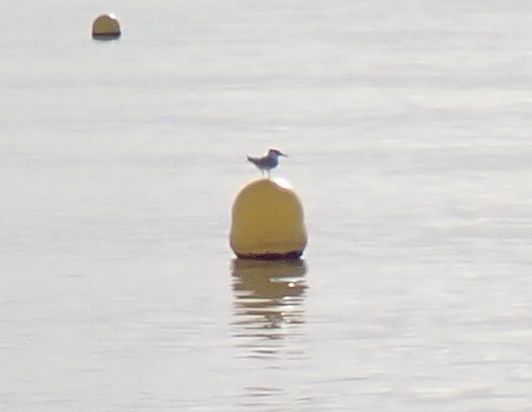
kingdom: Animalia
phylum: Chordata
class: Aves
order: Charadriiformes
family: Laridae
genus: Thalasseus
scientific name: Thalasseus sandvicensis
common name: Sandwich tern
